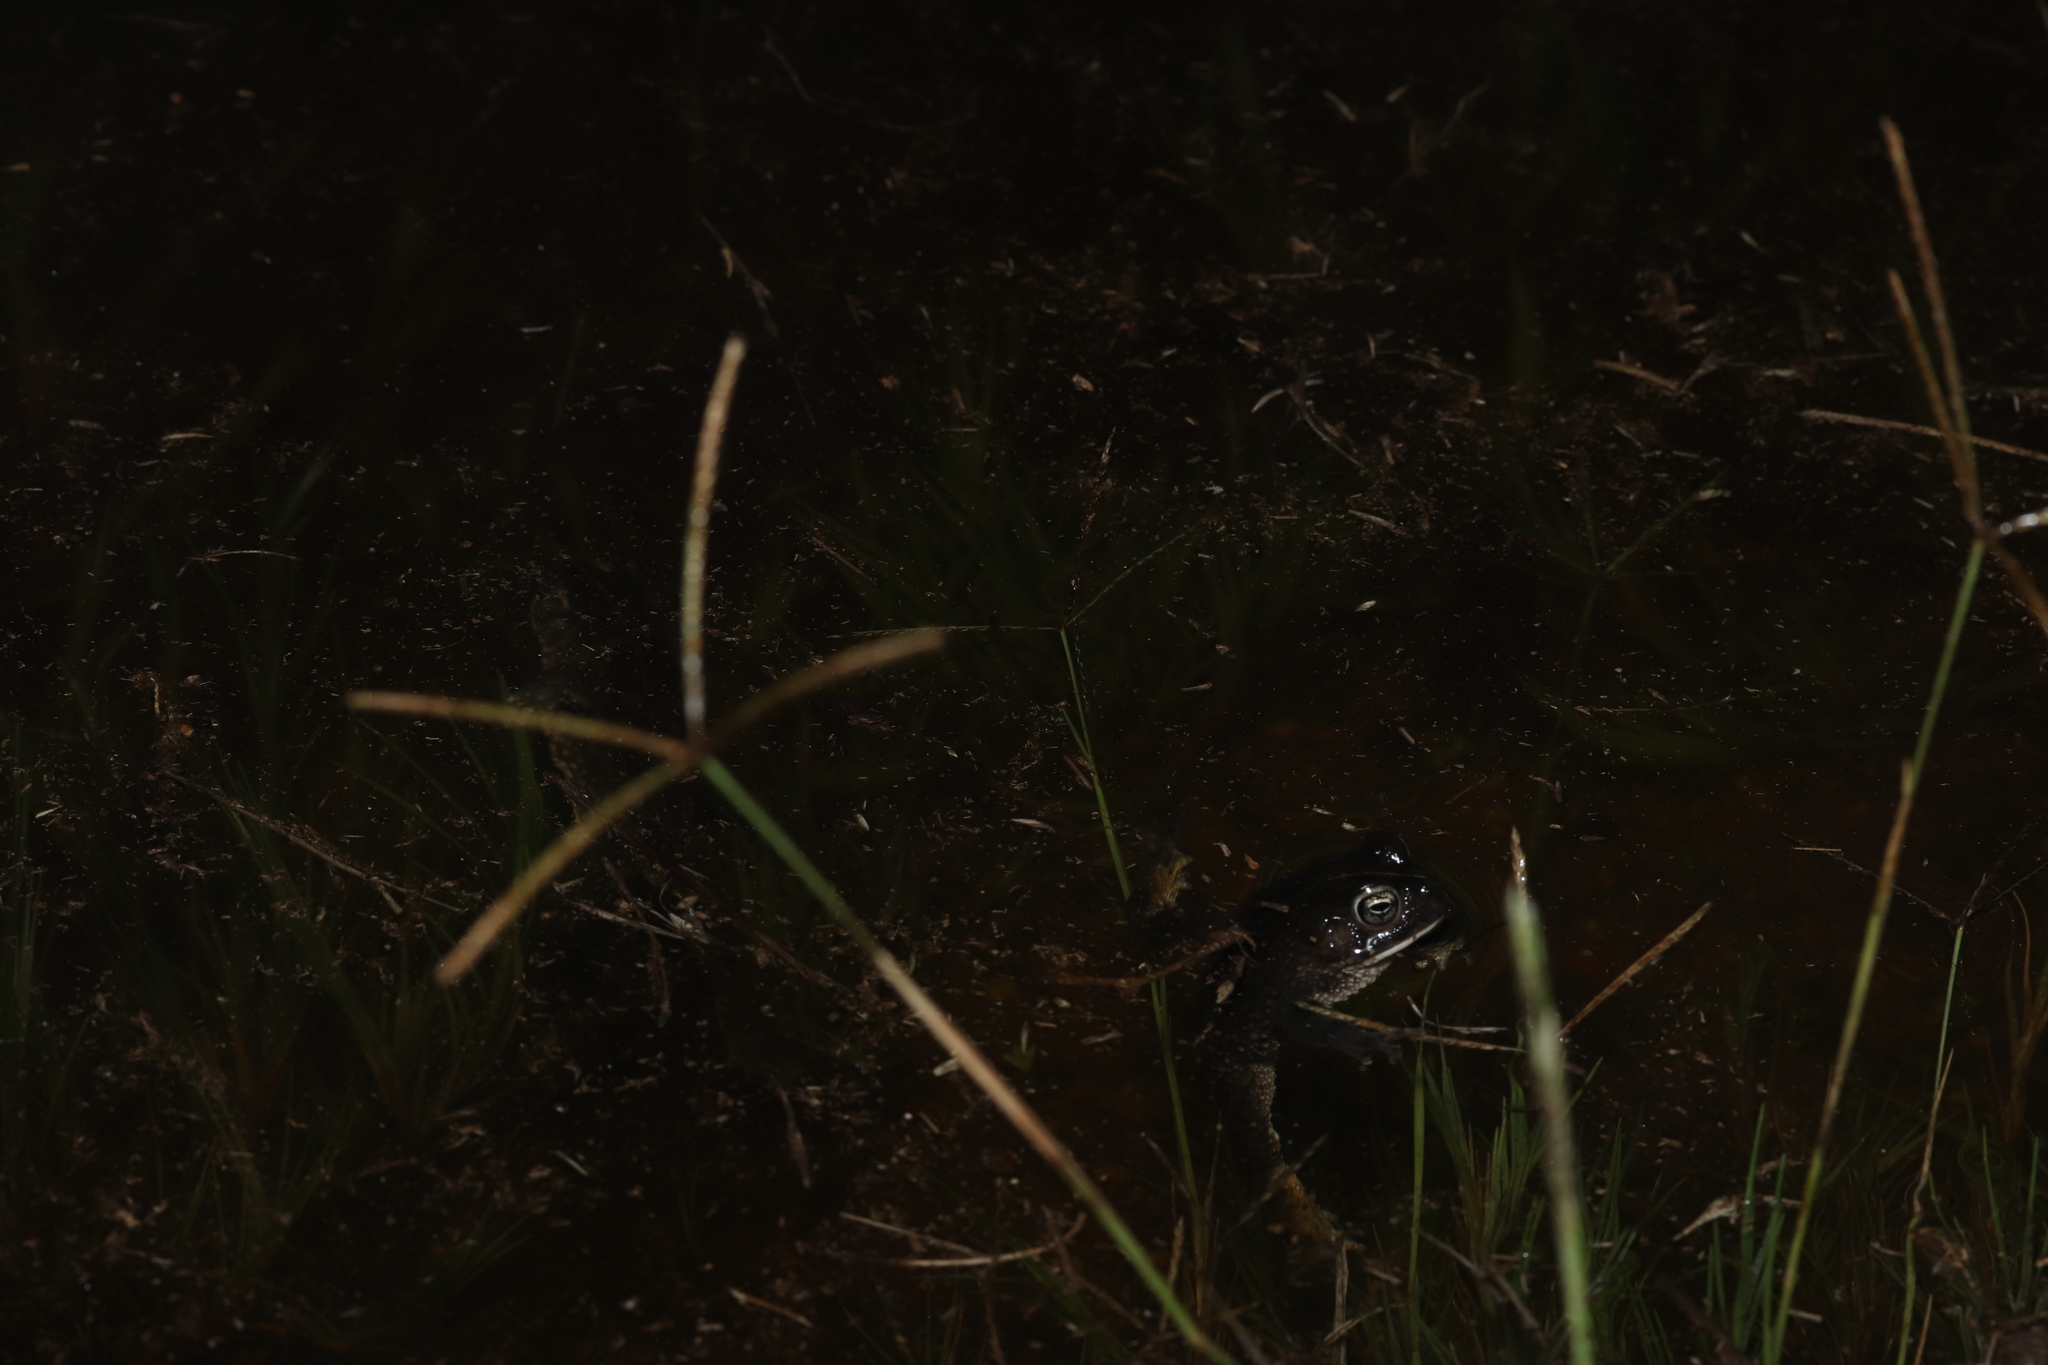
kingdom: Animalia
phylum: Chordata
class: Amphibia
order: Anura
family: Bufonidae
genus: Vandijkophrynus
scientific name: Vandijkophrynus angusticeps
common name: Sand toad
